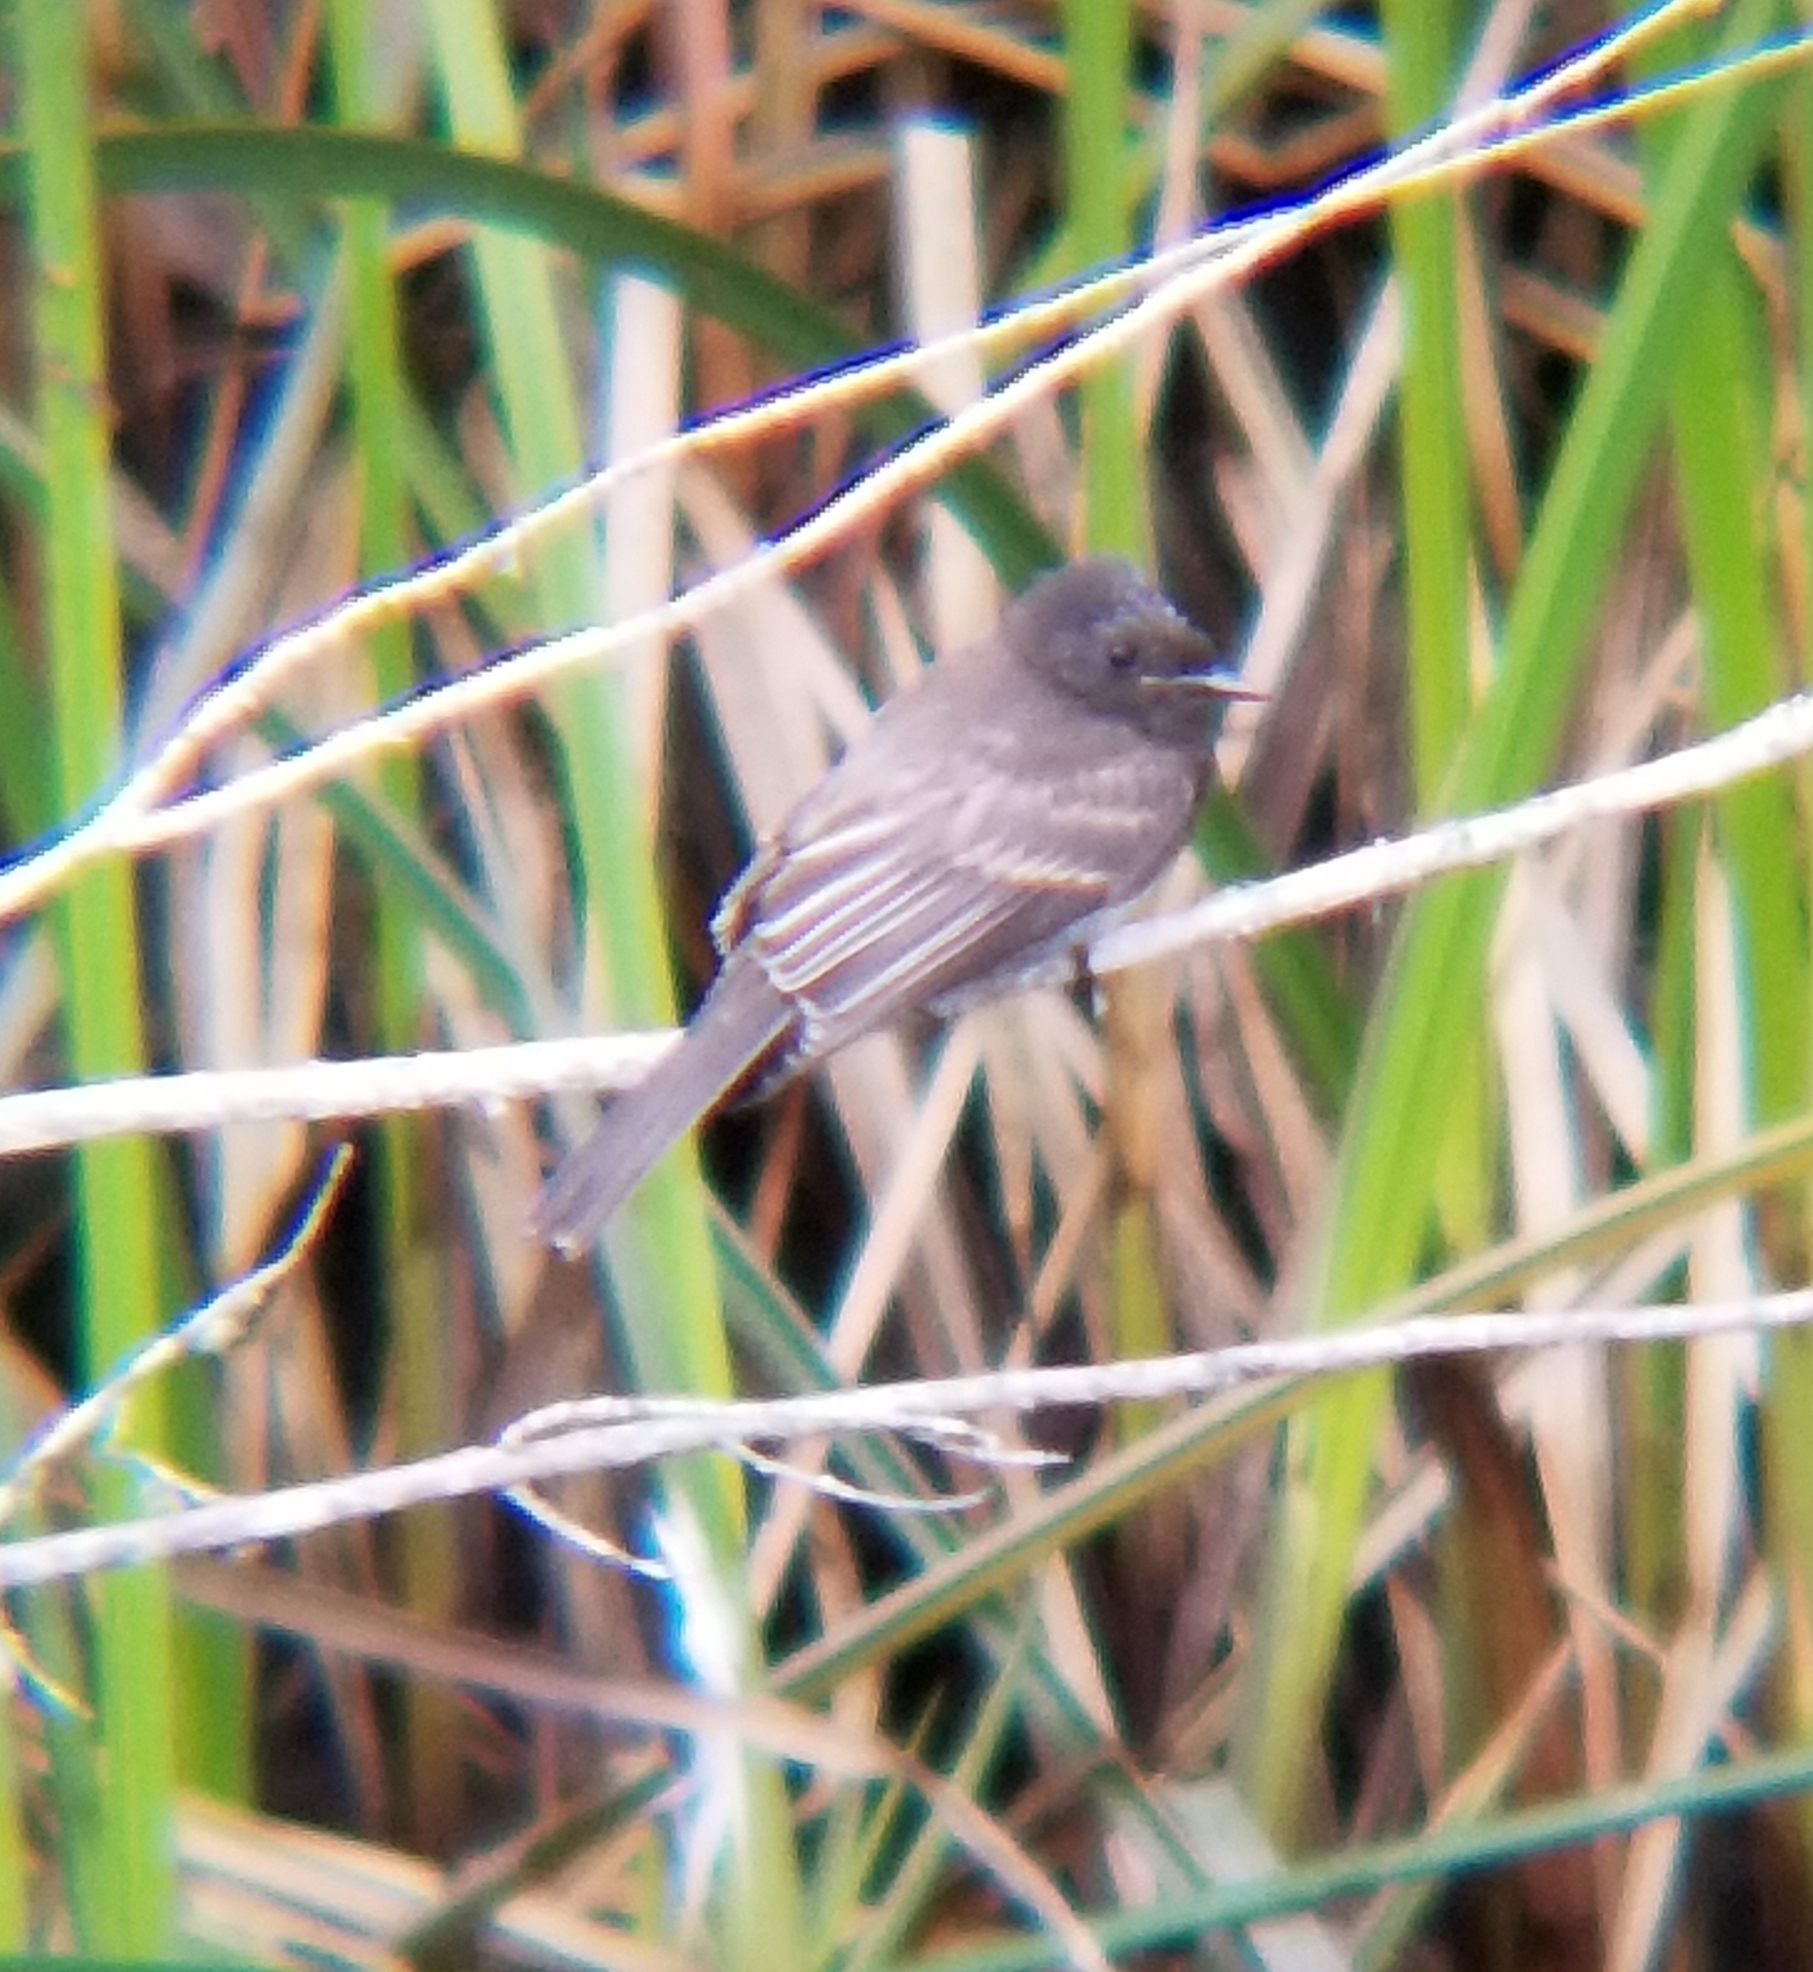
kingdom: Animalia
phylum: Chordata
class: Aves
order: Passeriformes
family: Tyrannidae
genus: Sayornis
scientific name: Sayornis nigricans
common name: Black phoebe
